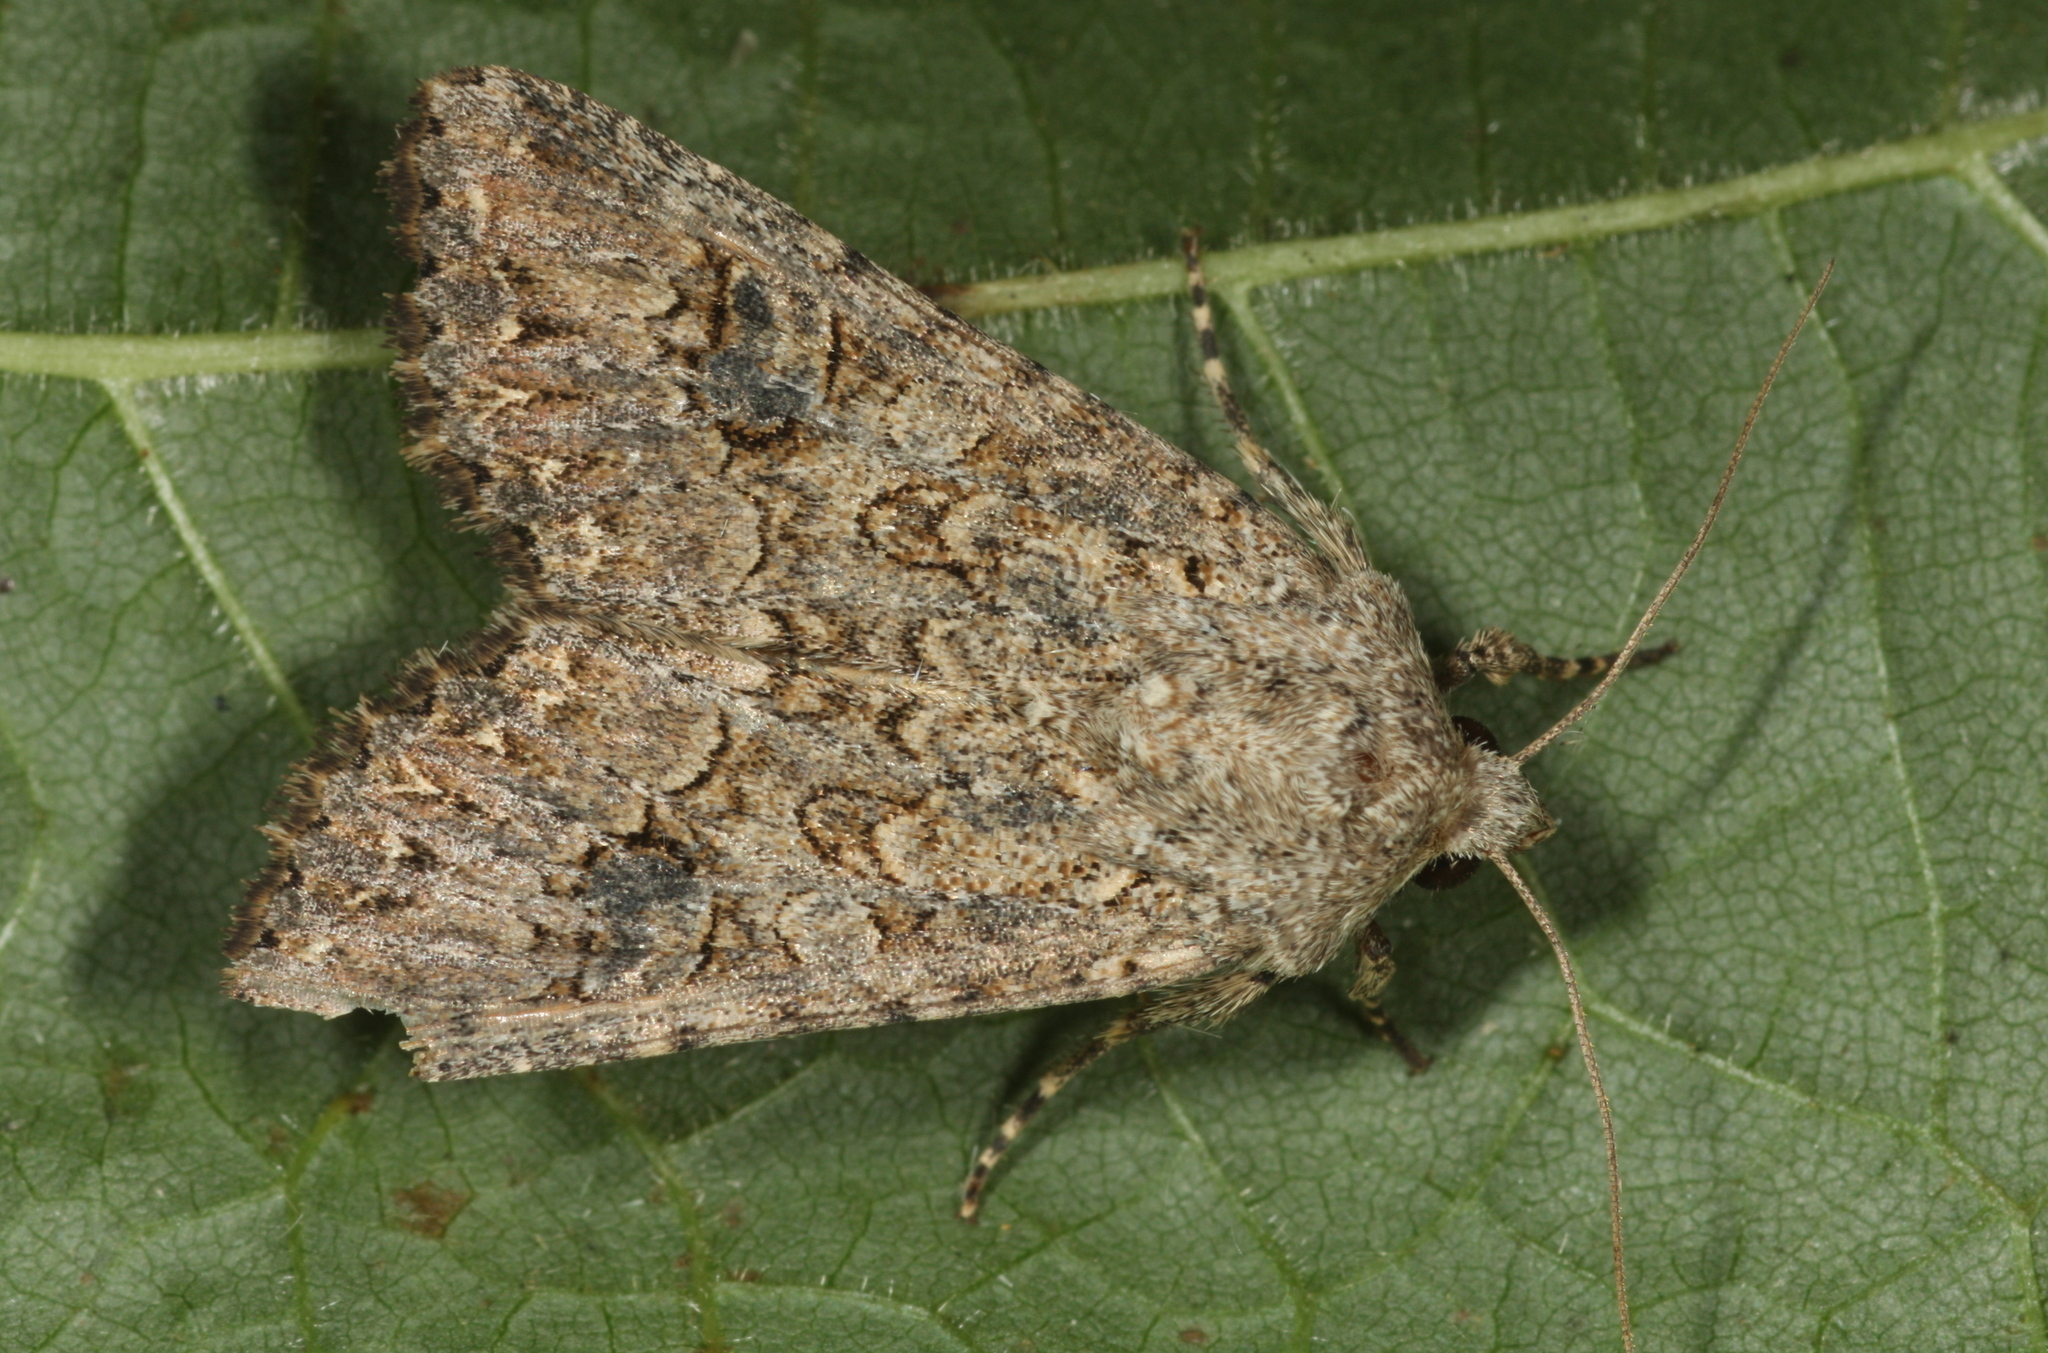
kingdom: Animalia
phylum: Arthropoda
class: Insecta
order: Lepidoptera
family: Noctuidae
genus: Anarta
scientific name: Anarta trifolii
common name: Clover cutworm moth
